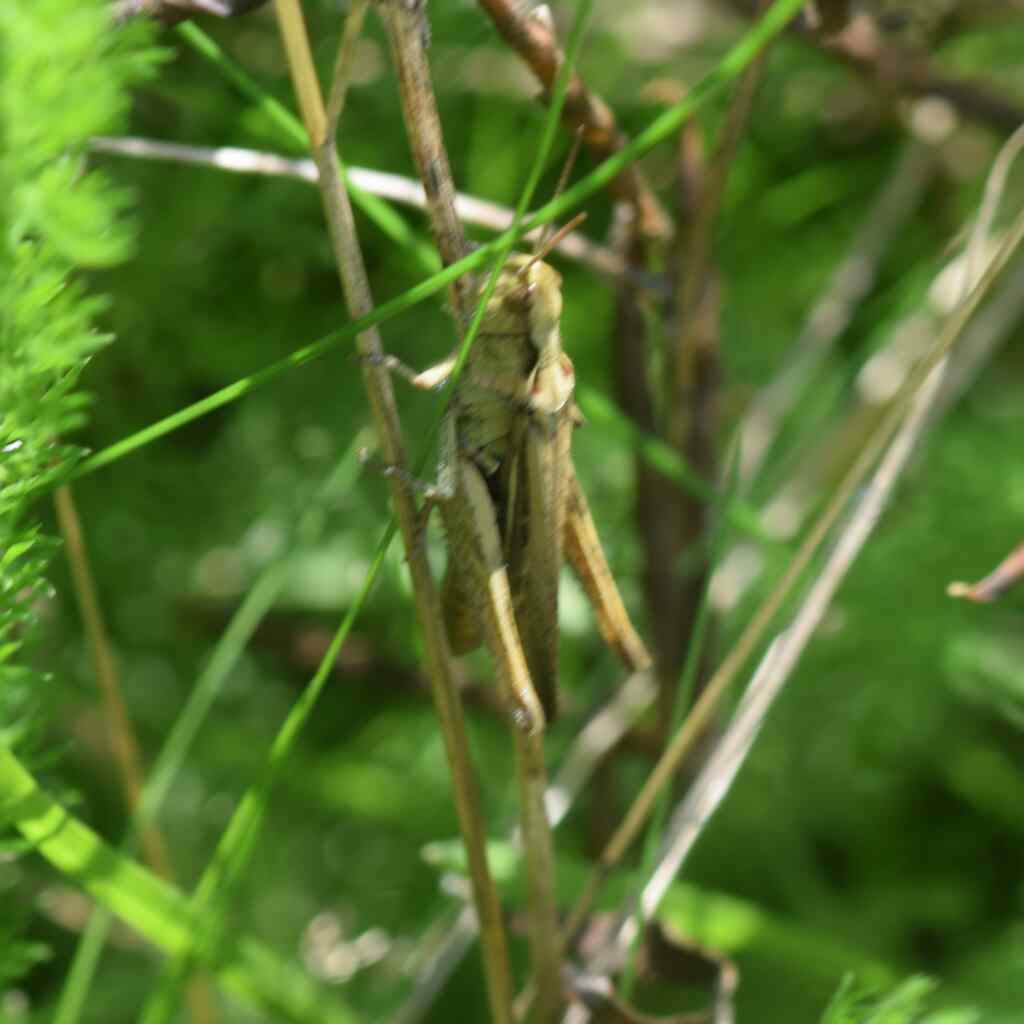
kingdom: Animalia
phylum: Arthropoda
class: Insecta
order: Orthoptera
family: Acrididae
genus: Chorthippus
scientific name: Chorthippus brunneus
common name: Field grasshopper
